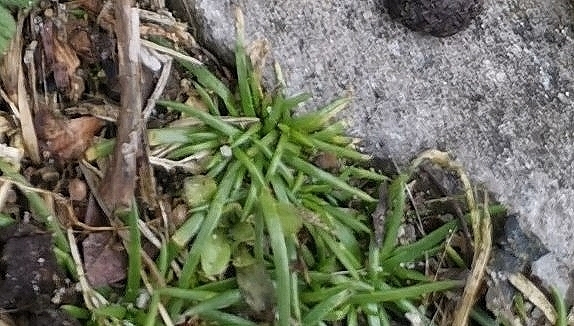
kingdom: Plantae
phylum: Tracheophyta
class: Magnoliopsida
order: Caryophyllales
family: Caryophyllaceae
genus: Sagina
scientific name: Sagina procumbens
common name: Procumbent pearlwort
